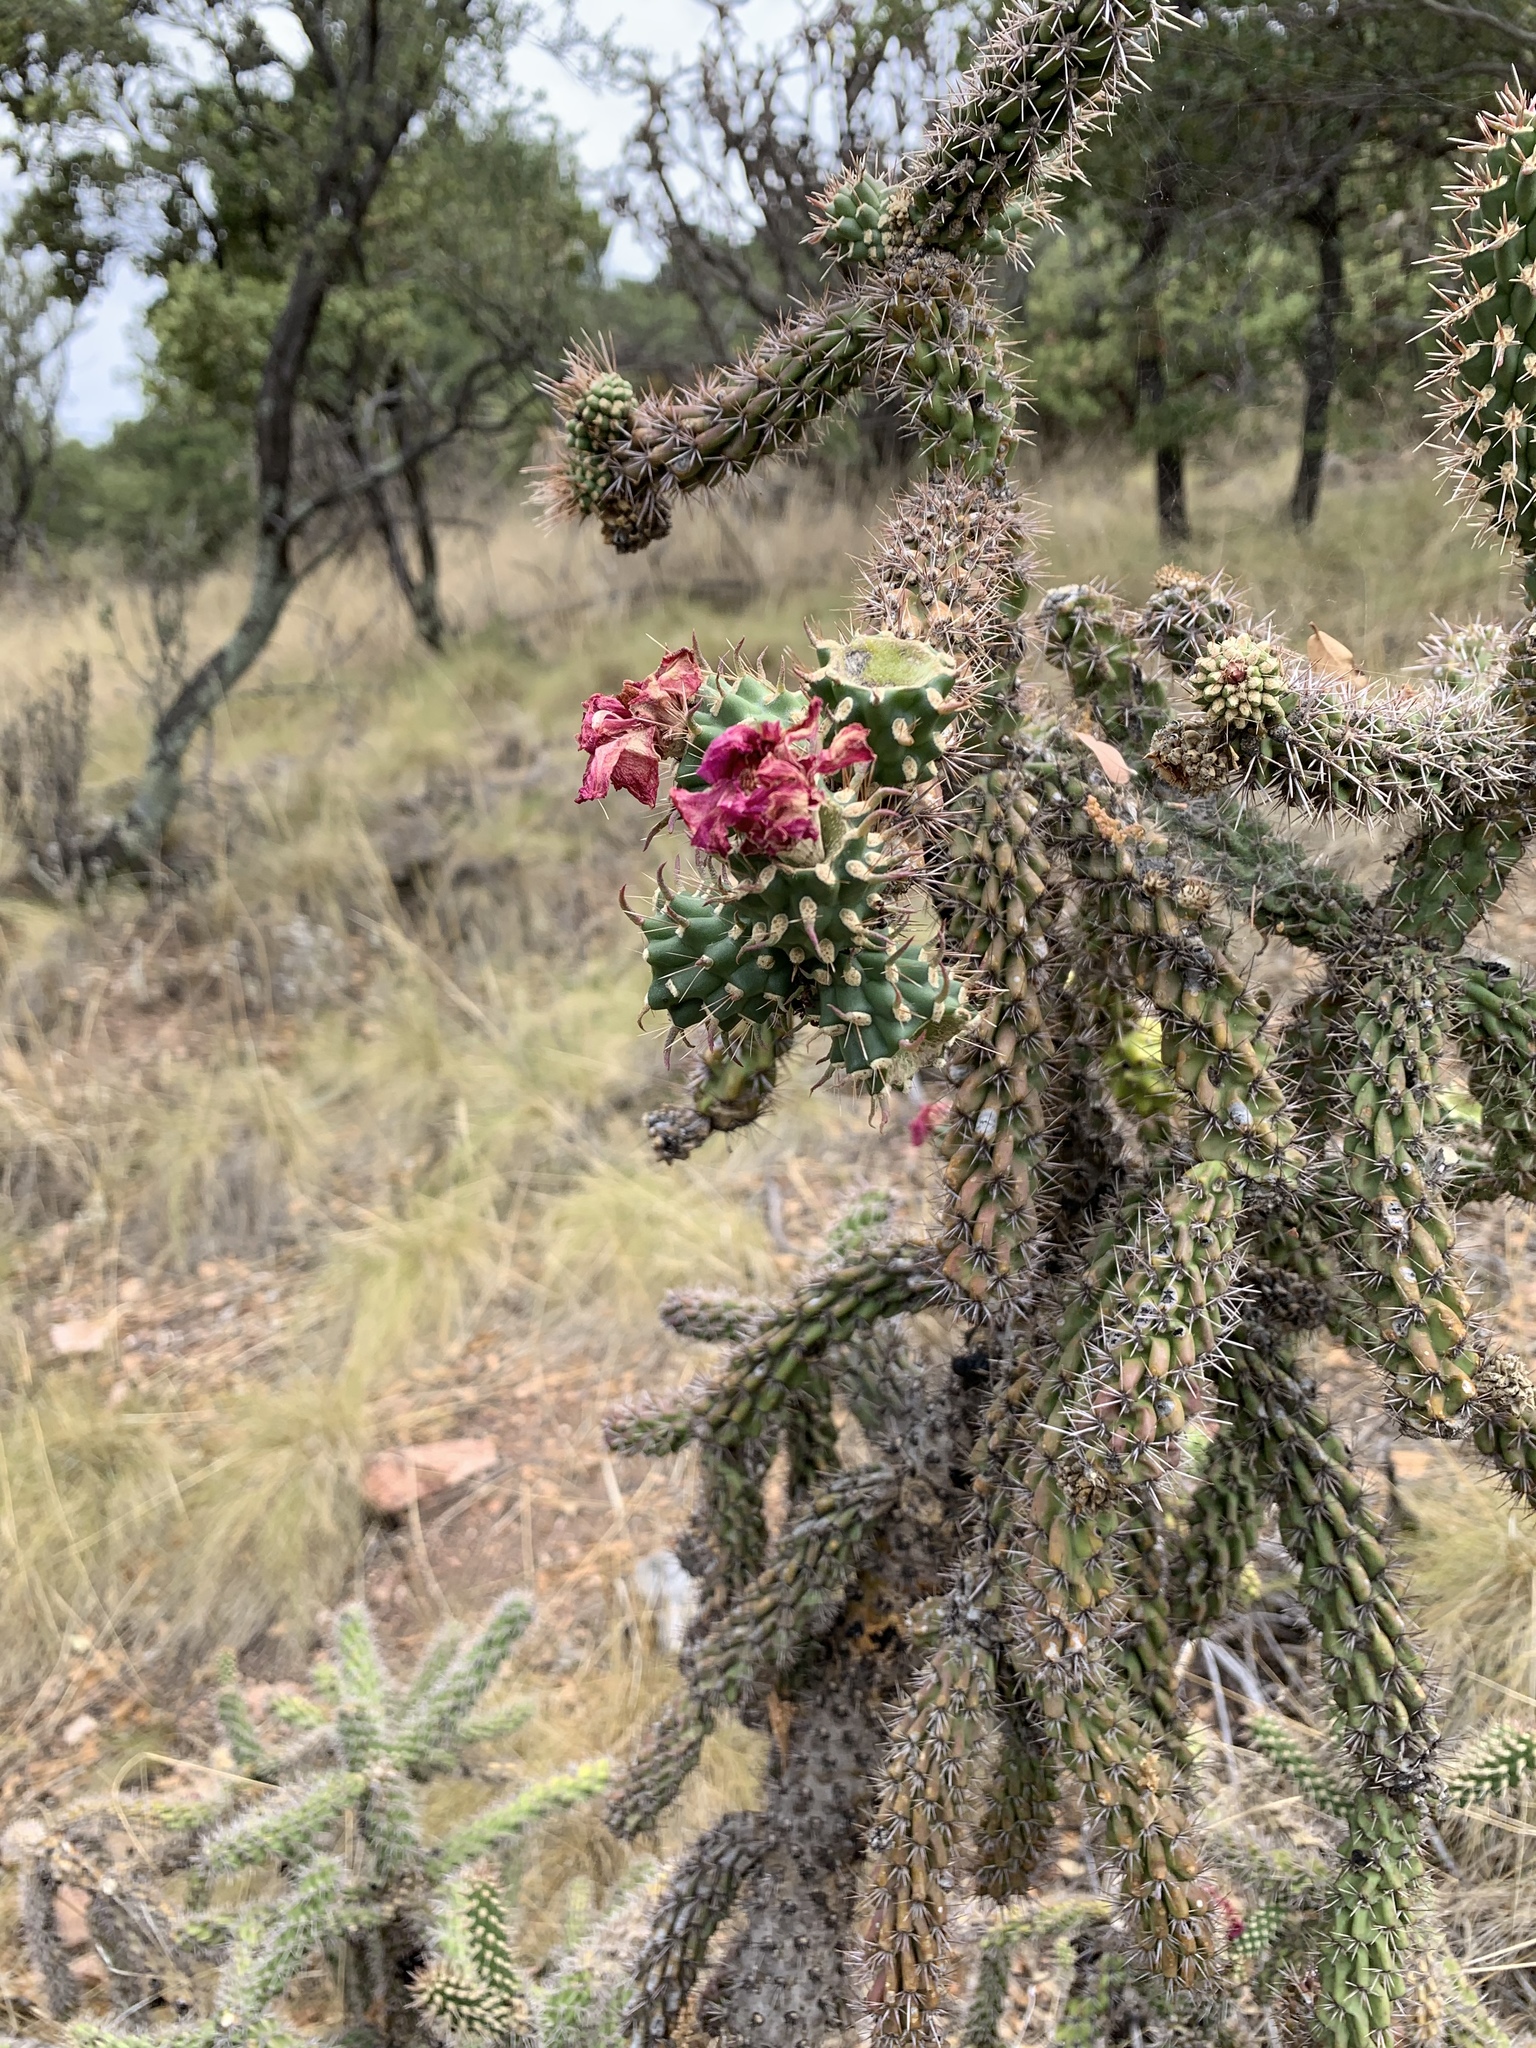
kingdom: Plantae
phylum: Tracheophyta
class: Magnoliopsida
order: Caryophyllales
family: Cactaceae
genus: Cylindropuntia
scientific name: Cylindropuntia imbricata
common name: Candelabrum cactus
